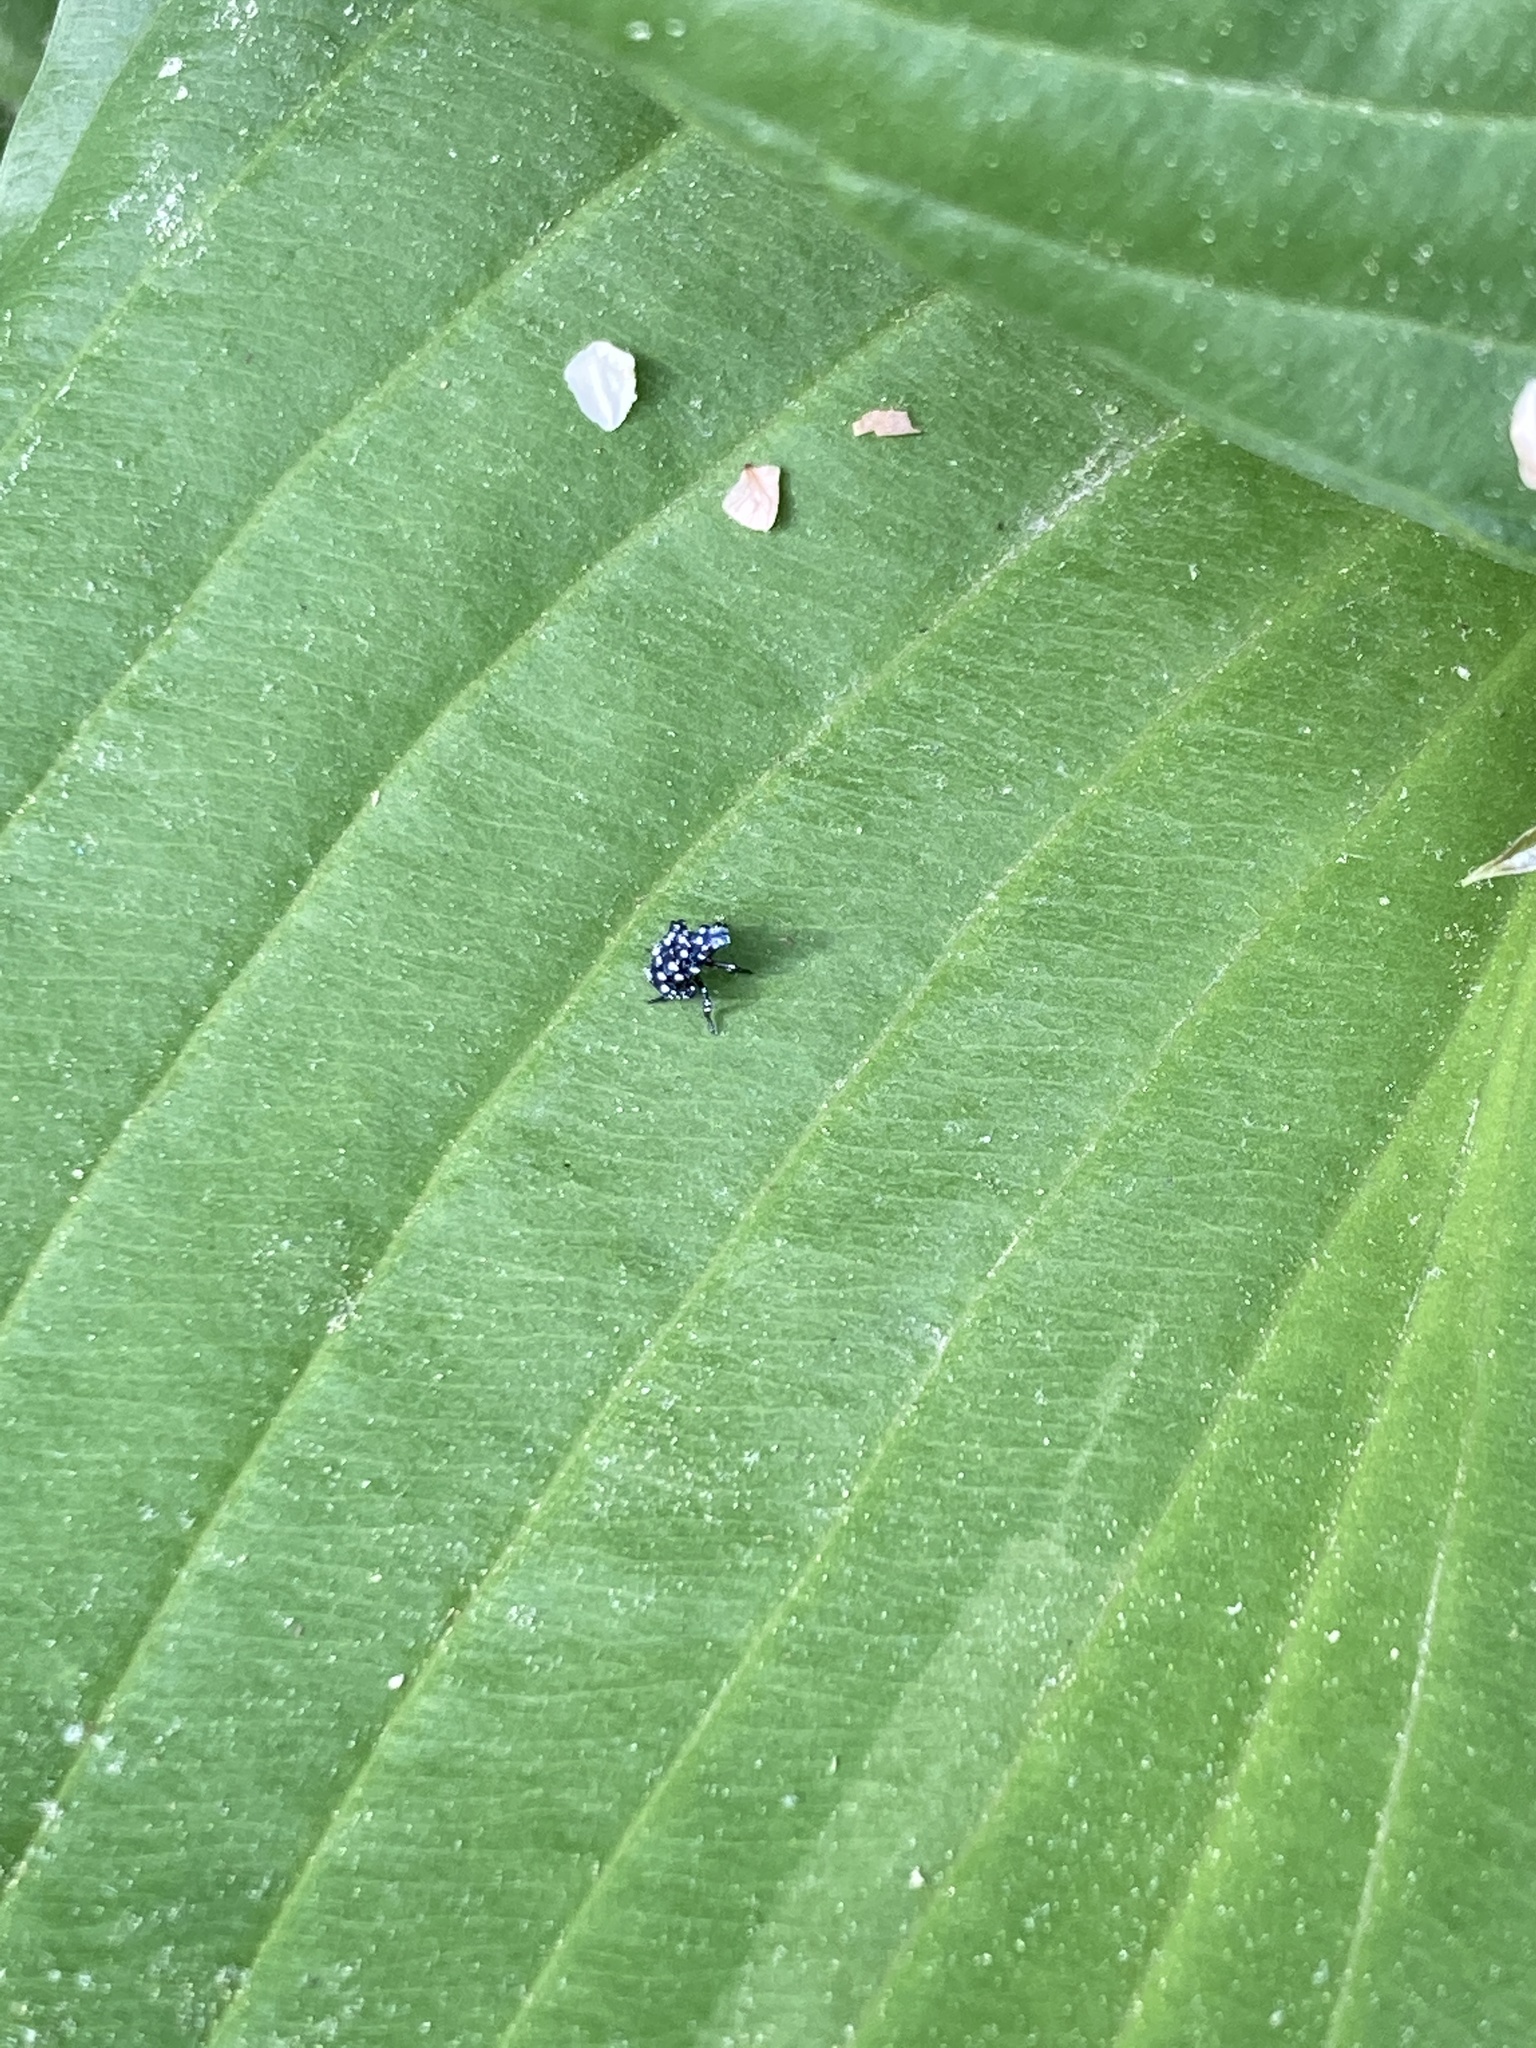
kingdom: Animalia
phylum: Arthropoda
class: Insecta
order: Hemiptera
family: Fulgoridae
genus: Lycorma
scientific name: Lycorma delicatula
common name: Spotted lanternfly
